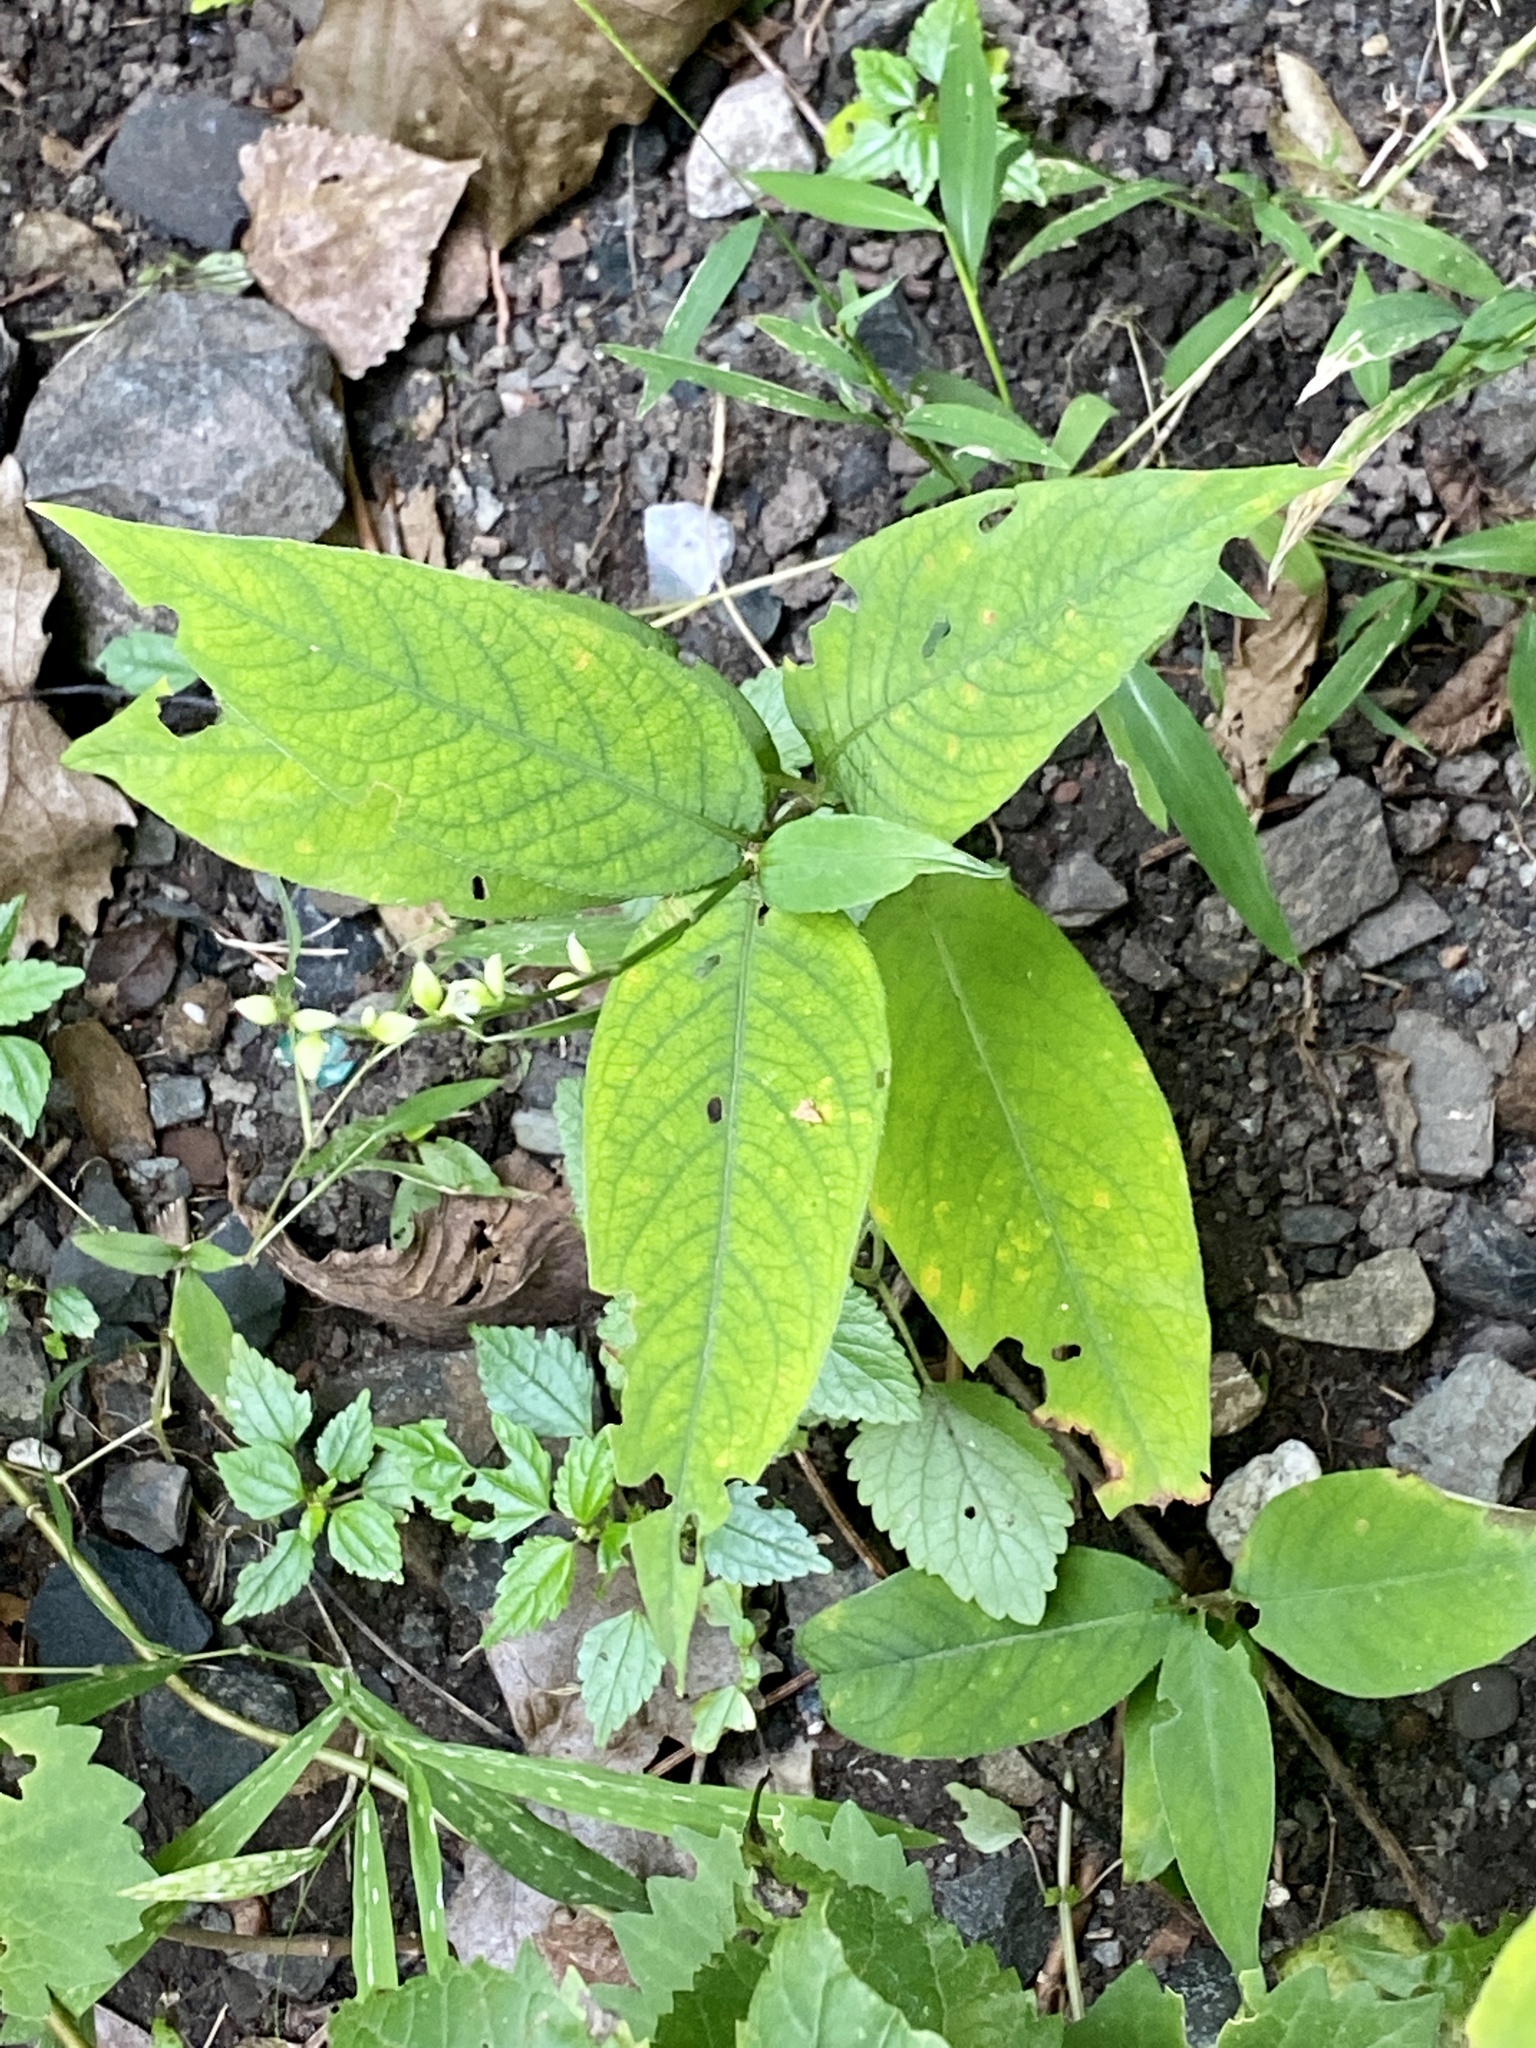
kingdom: Plantae
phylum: Tracheophyta
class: Magnoliopsida
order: Caryophyllales
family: Polygonaceae
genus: Persicaria
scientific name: Persicaria virginiana
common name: Jumpseed
